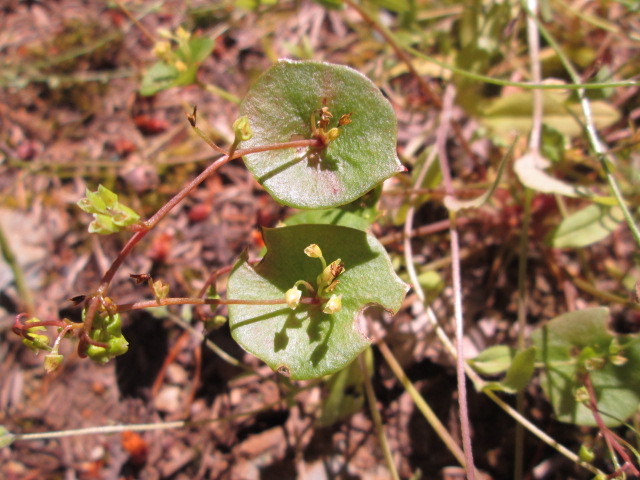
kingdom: Plantae
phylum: Tracheophyta
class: Magnoliopsida
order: Caryophyllales
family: Montiaceae
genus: Claytonia
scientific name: Claytonia perfoliata
